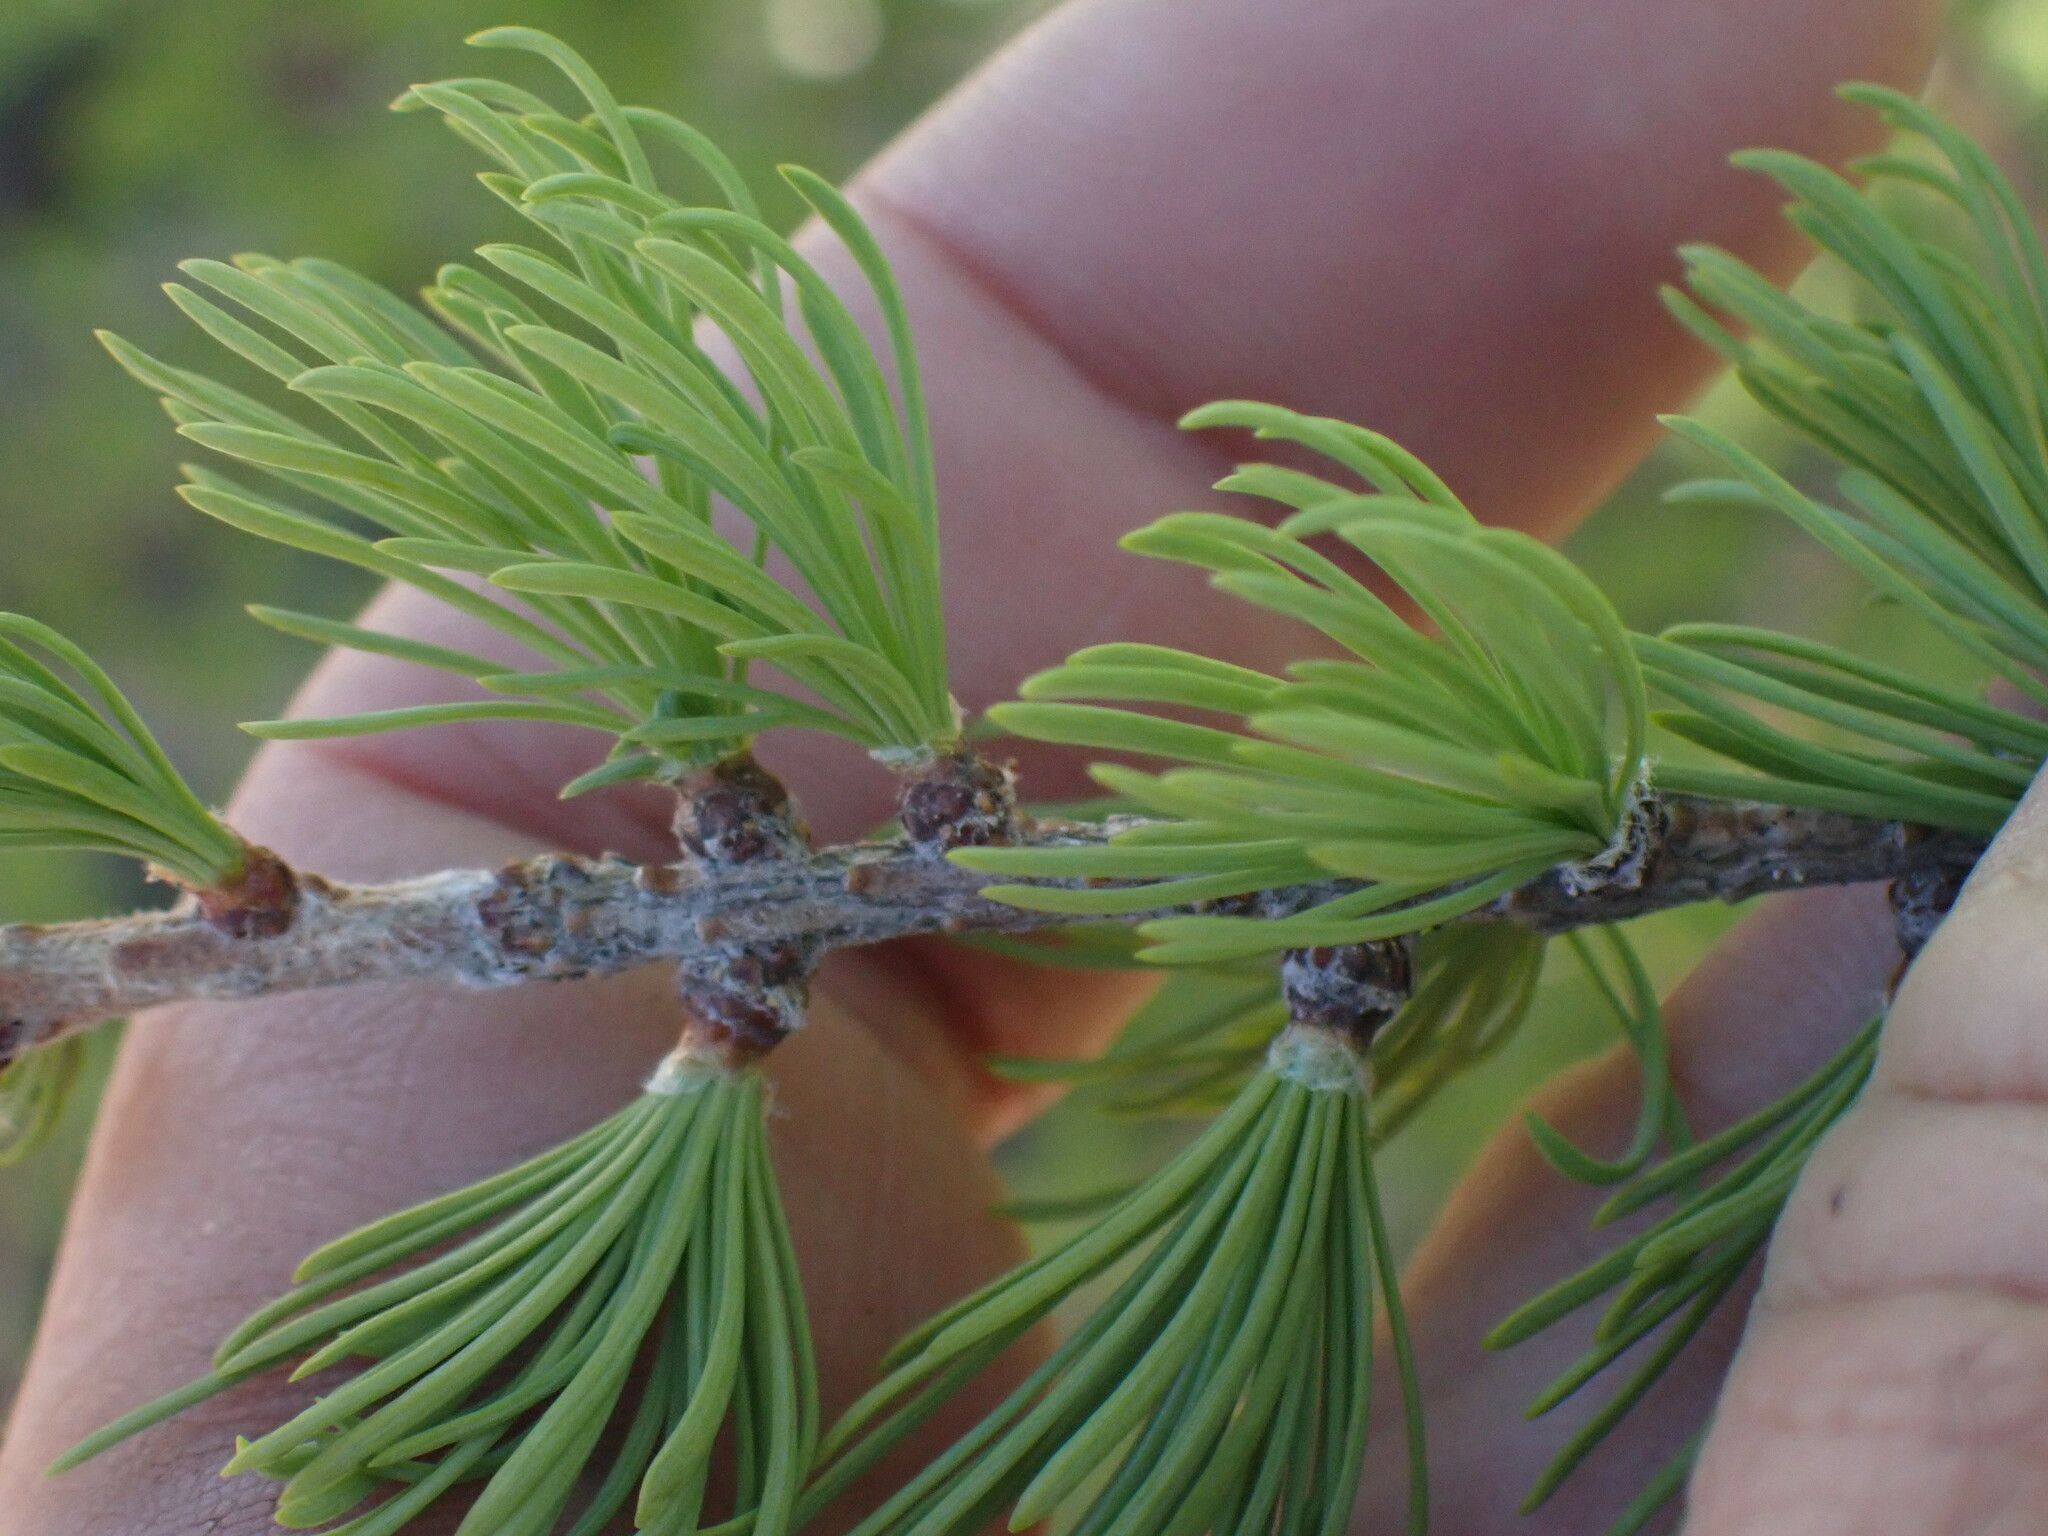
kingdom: Plantae
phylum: Tracheophyta
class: Pinopsida
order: Pinales
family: Pinaceae
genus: Larix
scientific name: Larix lyallii
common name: Alpine larch
